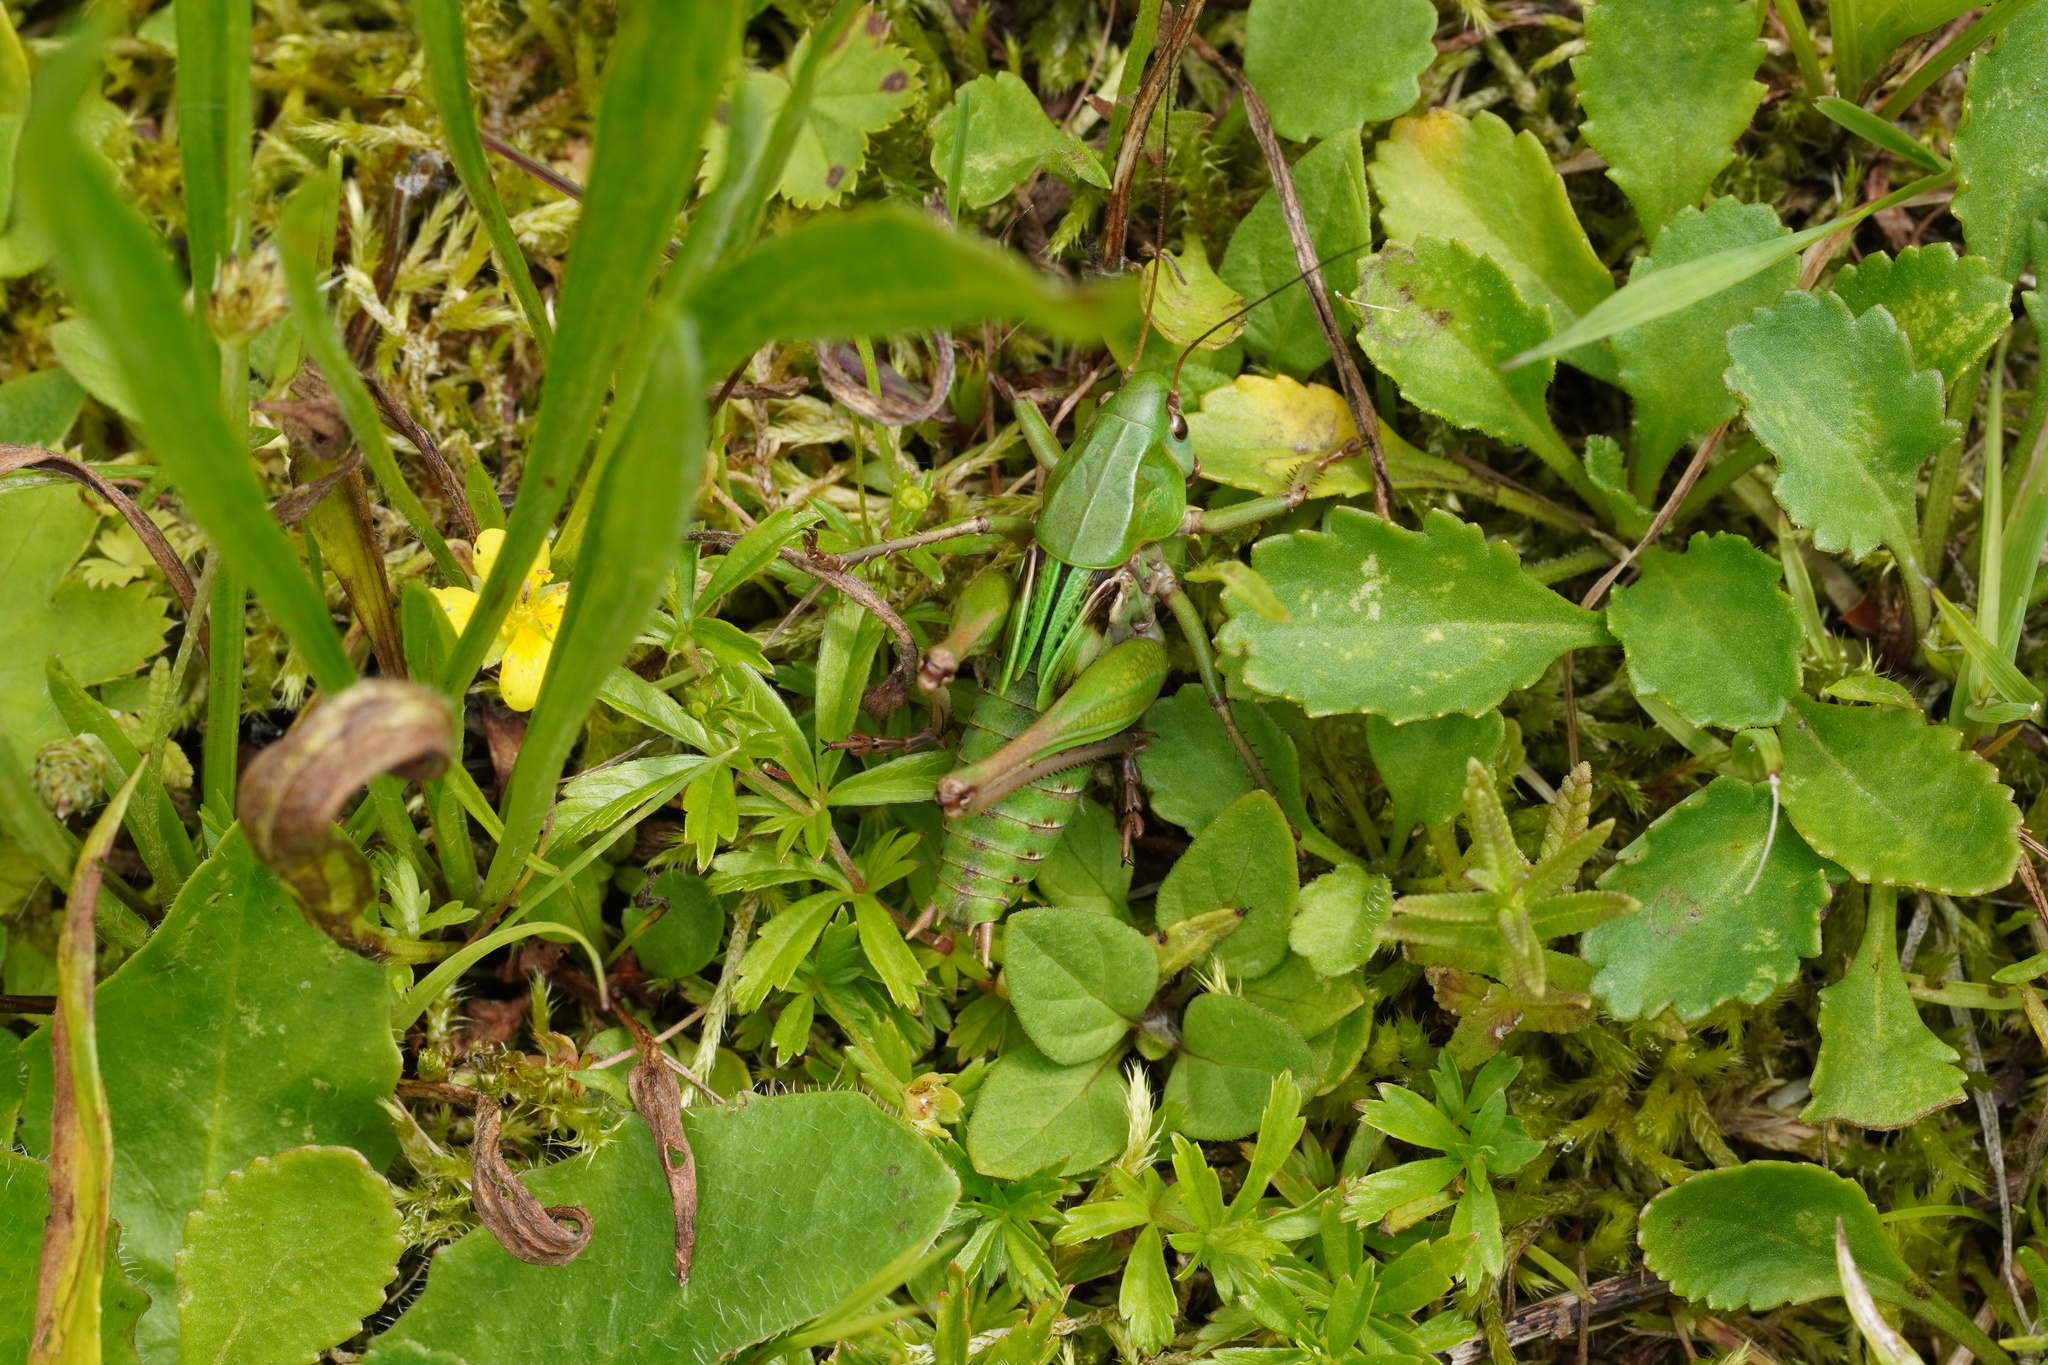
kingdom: Animalia
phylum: Arthropoda
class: Insecta
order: Orthoptera
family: Tettigoniidae
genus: Decticus
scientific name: Decticus verrucivorus
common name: Wart-biter
